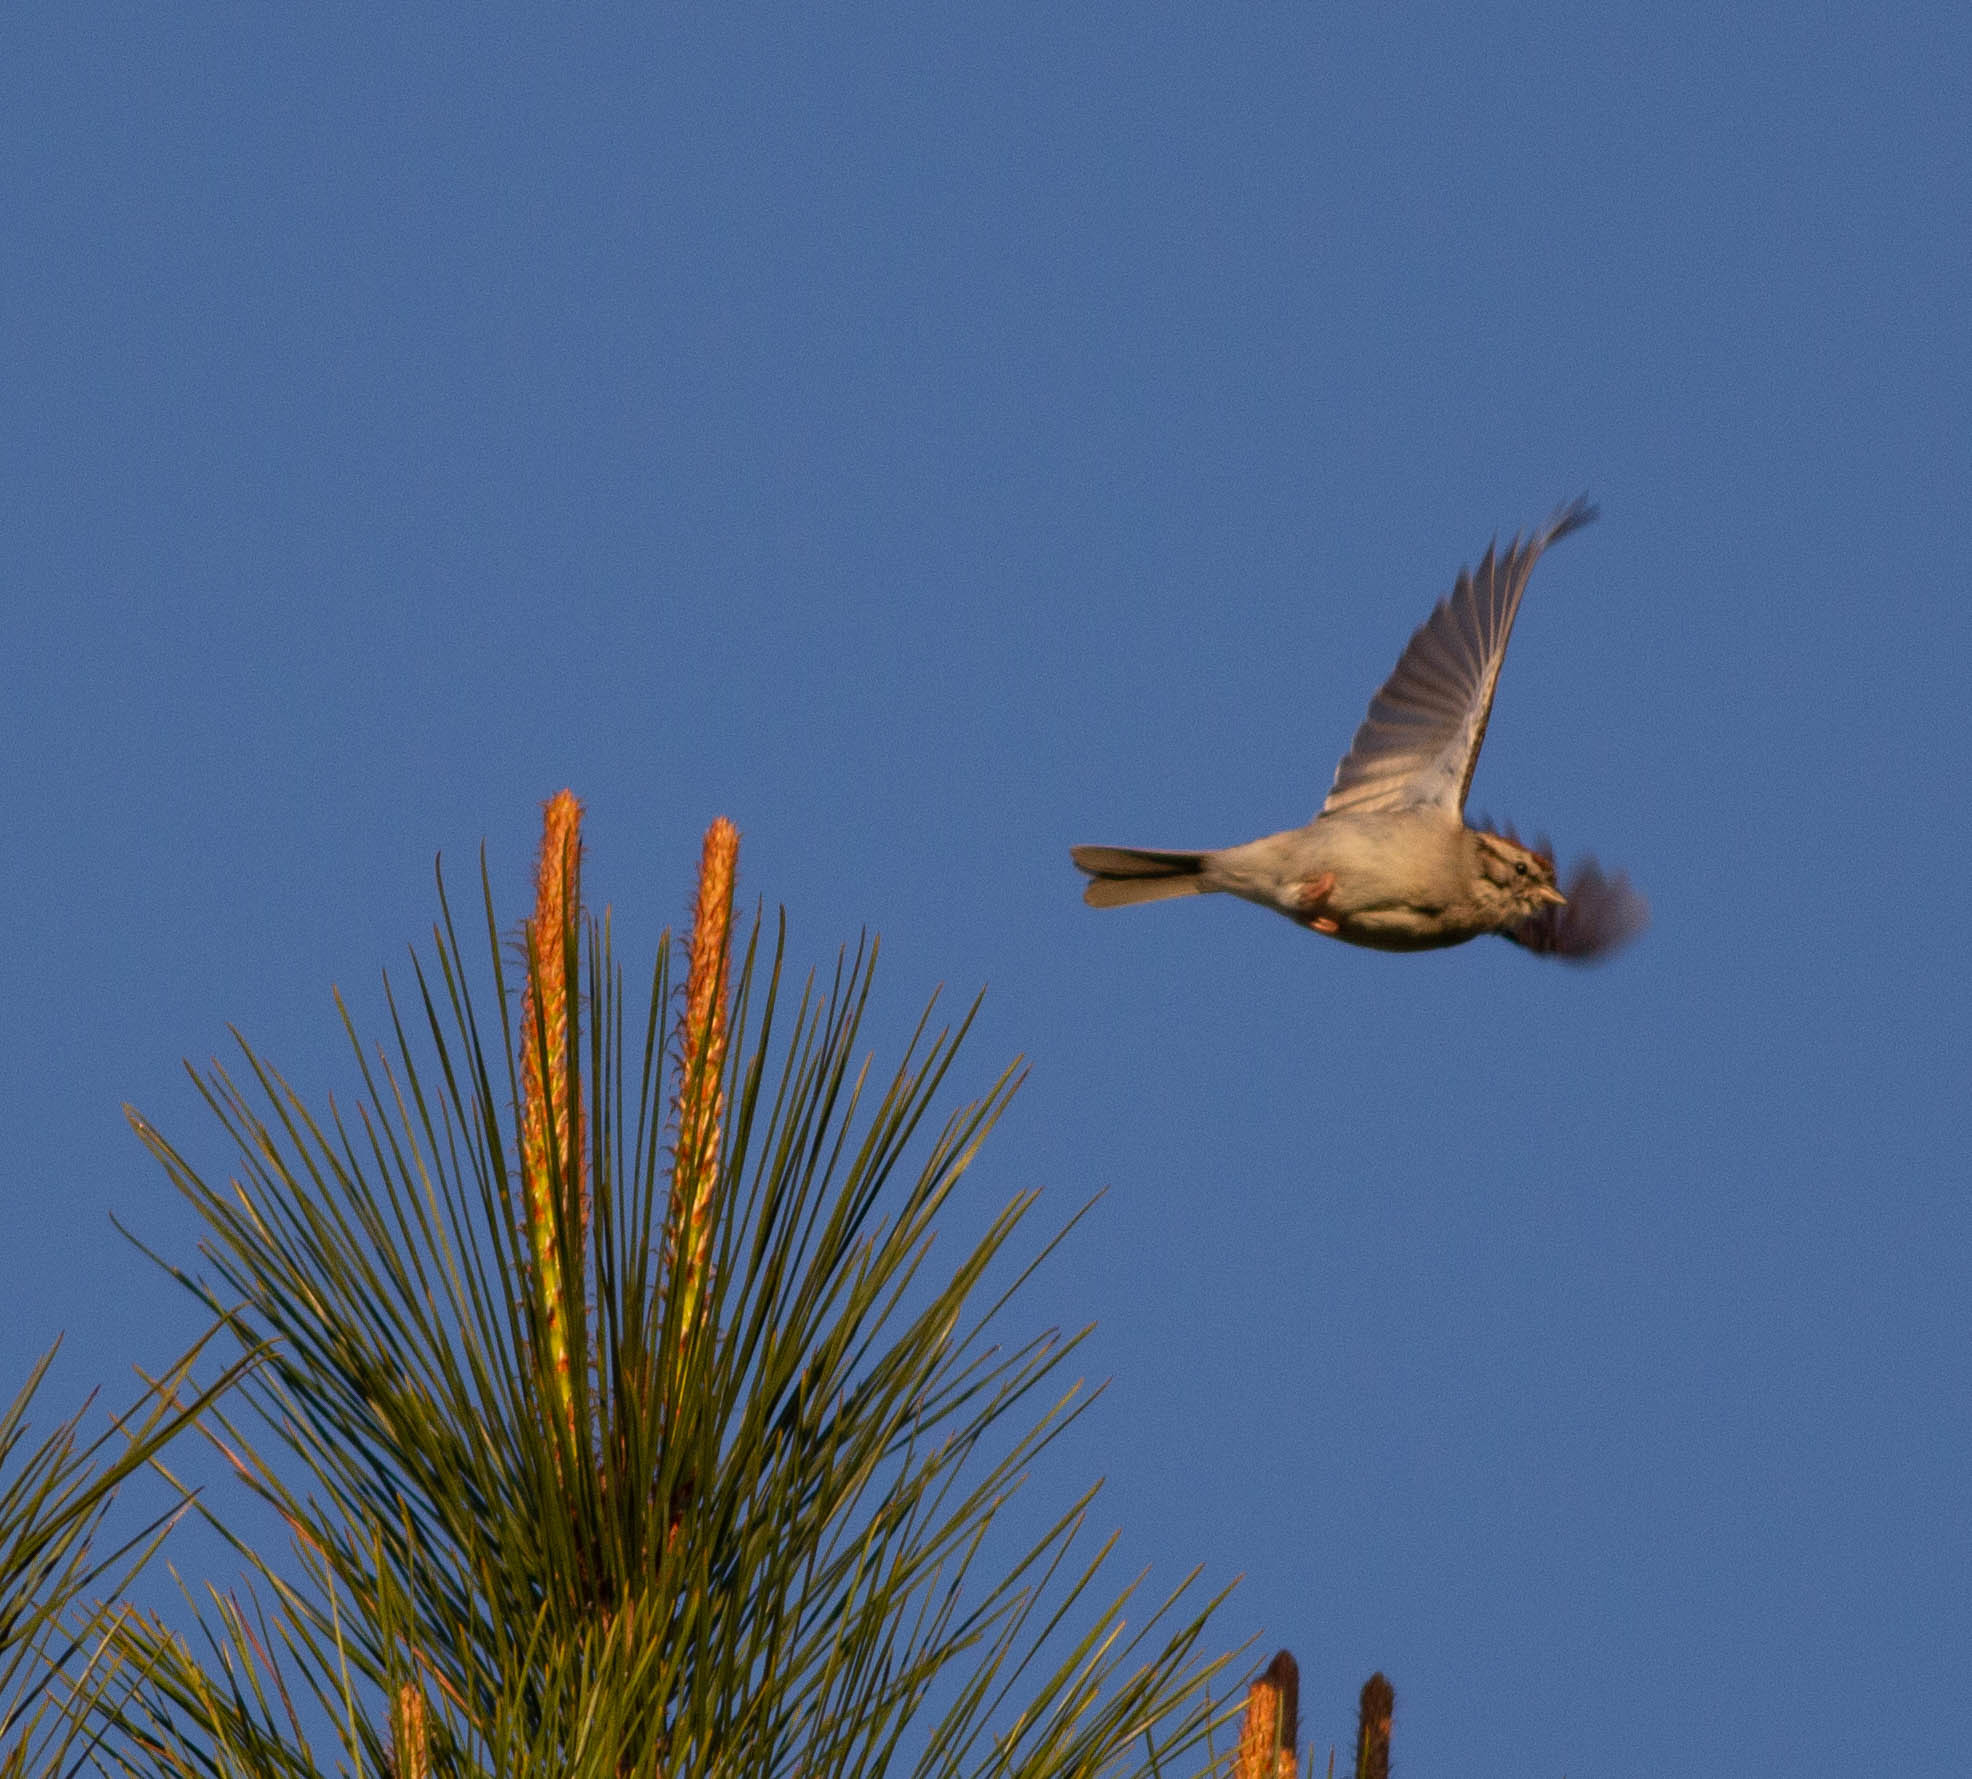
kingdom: Animalia
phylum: Chordata
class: Aves
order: Passeriformes
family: Passerellidae
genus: Spizella
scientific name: Spizella passerina
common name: Chipping sparrow
